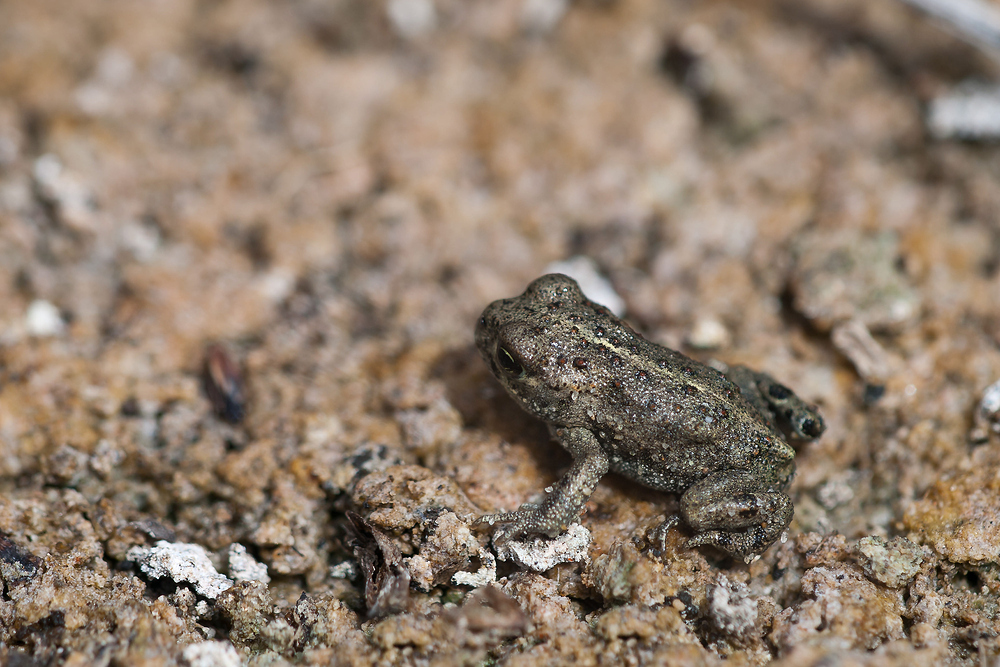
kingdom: Animalia
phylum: Chordata
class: Amphibia
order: Anura
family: Bufonidae
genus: Epidalea
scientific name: Epidalea calamita
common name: Natterjack toad
